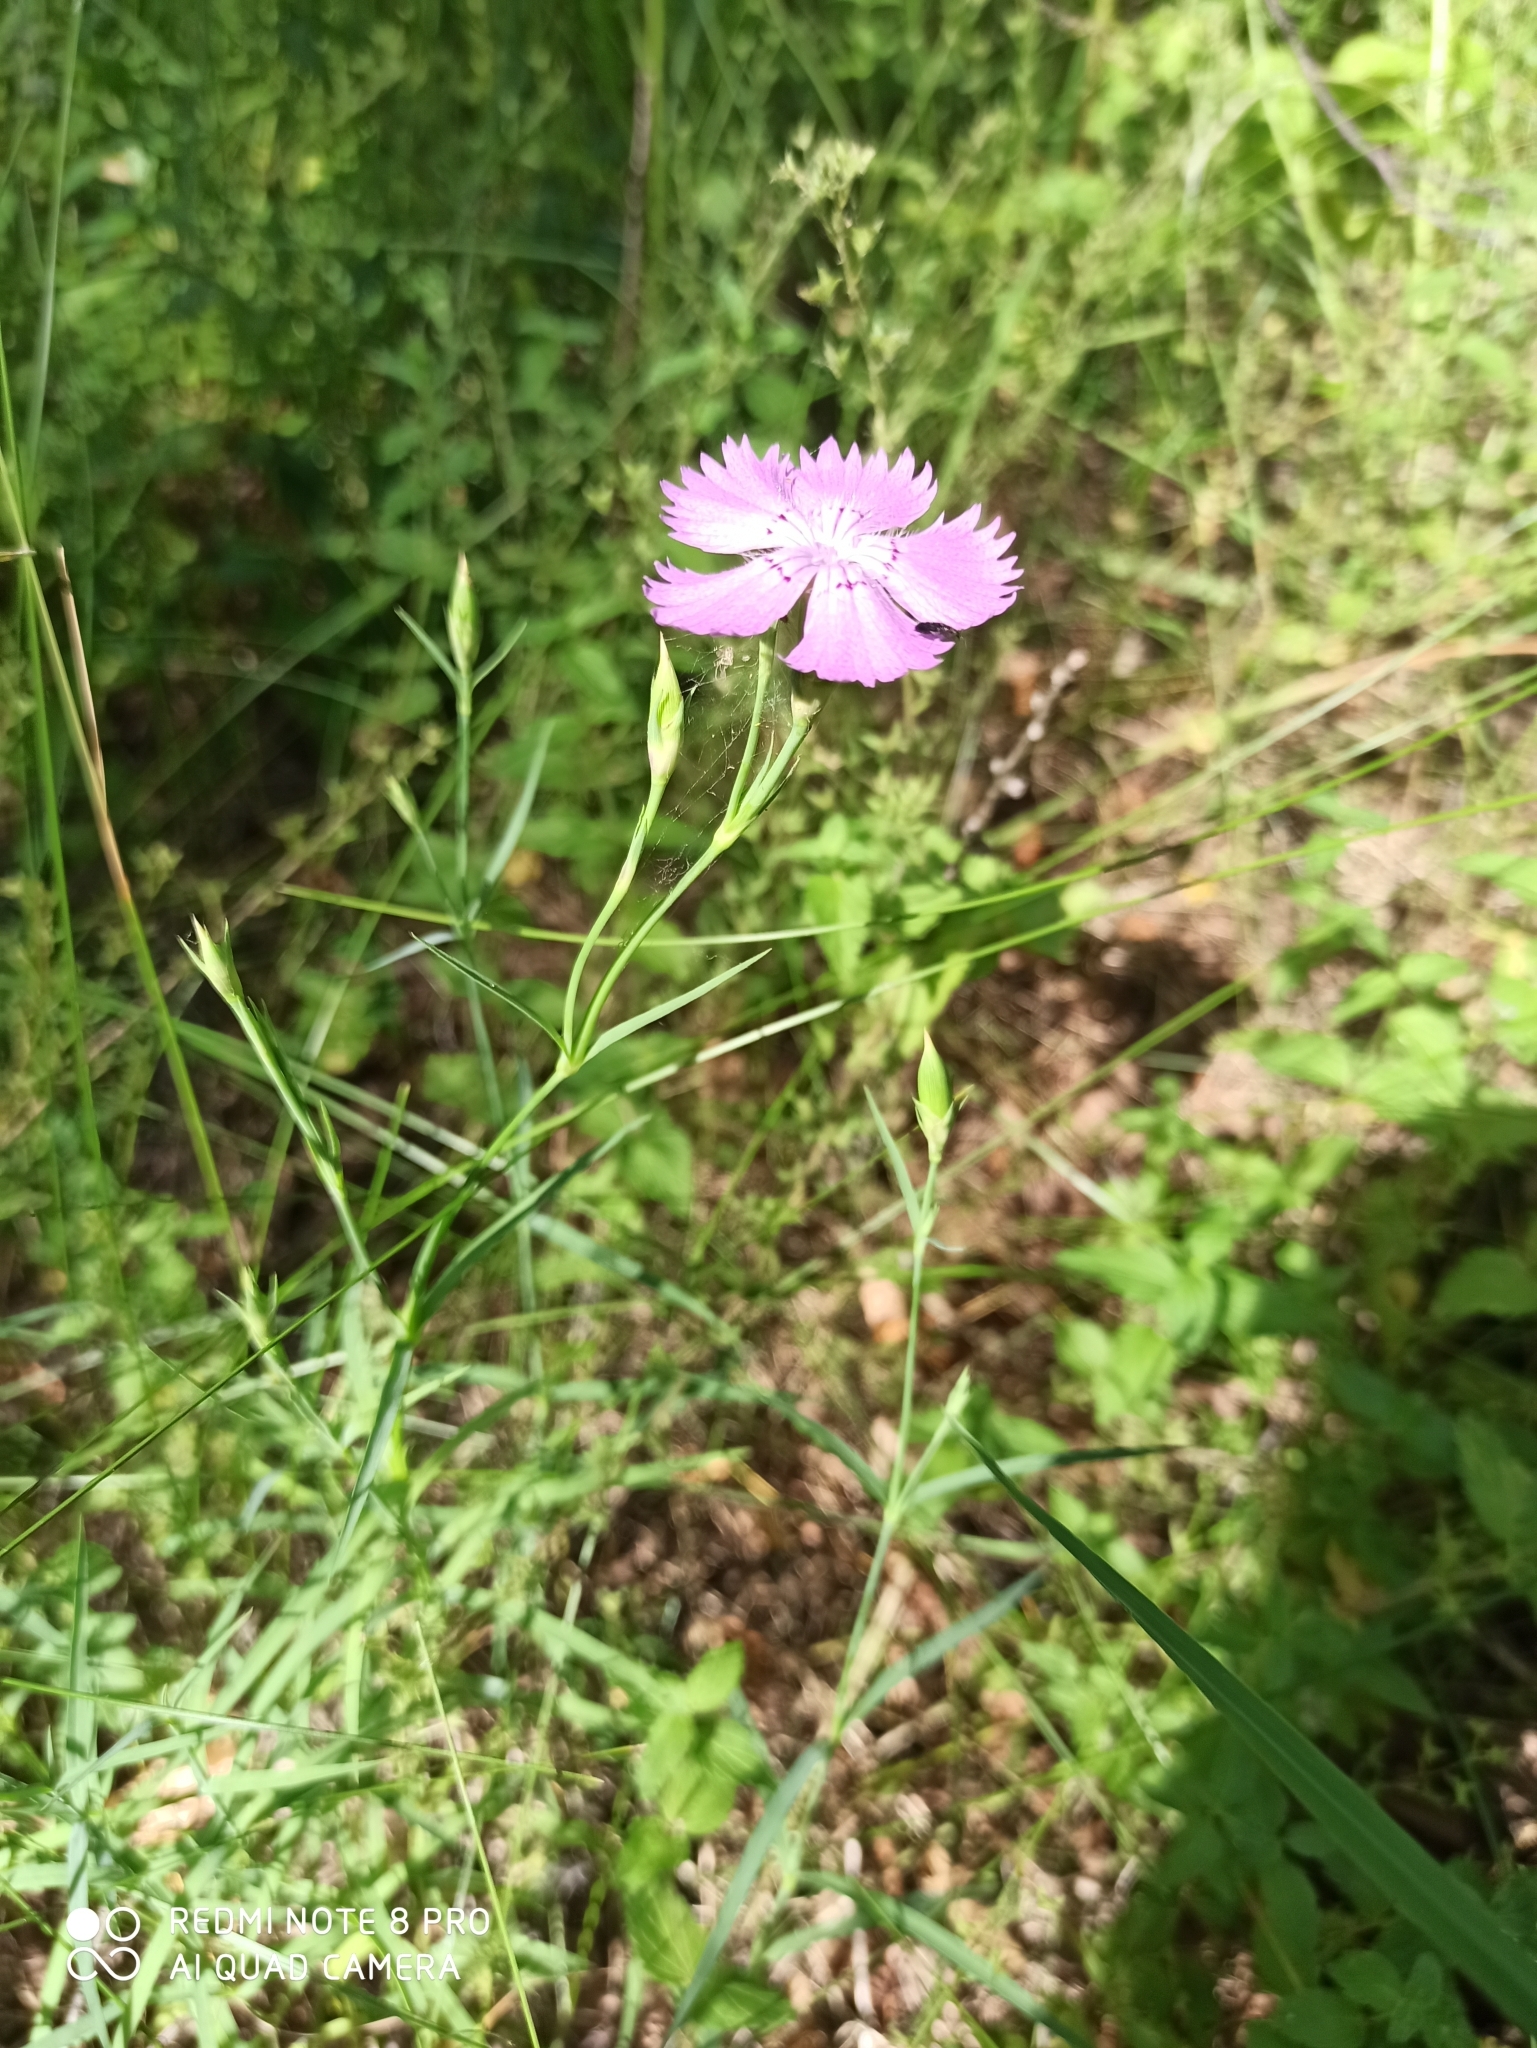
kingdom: Plantae
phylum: Tracheophyta
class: Magnoliopsida
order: Caryophyllales
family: Caryophyllaceae
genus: Dianthus
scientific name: Dianthus chinensis
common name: Rainbow pink
